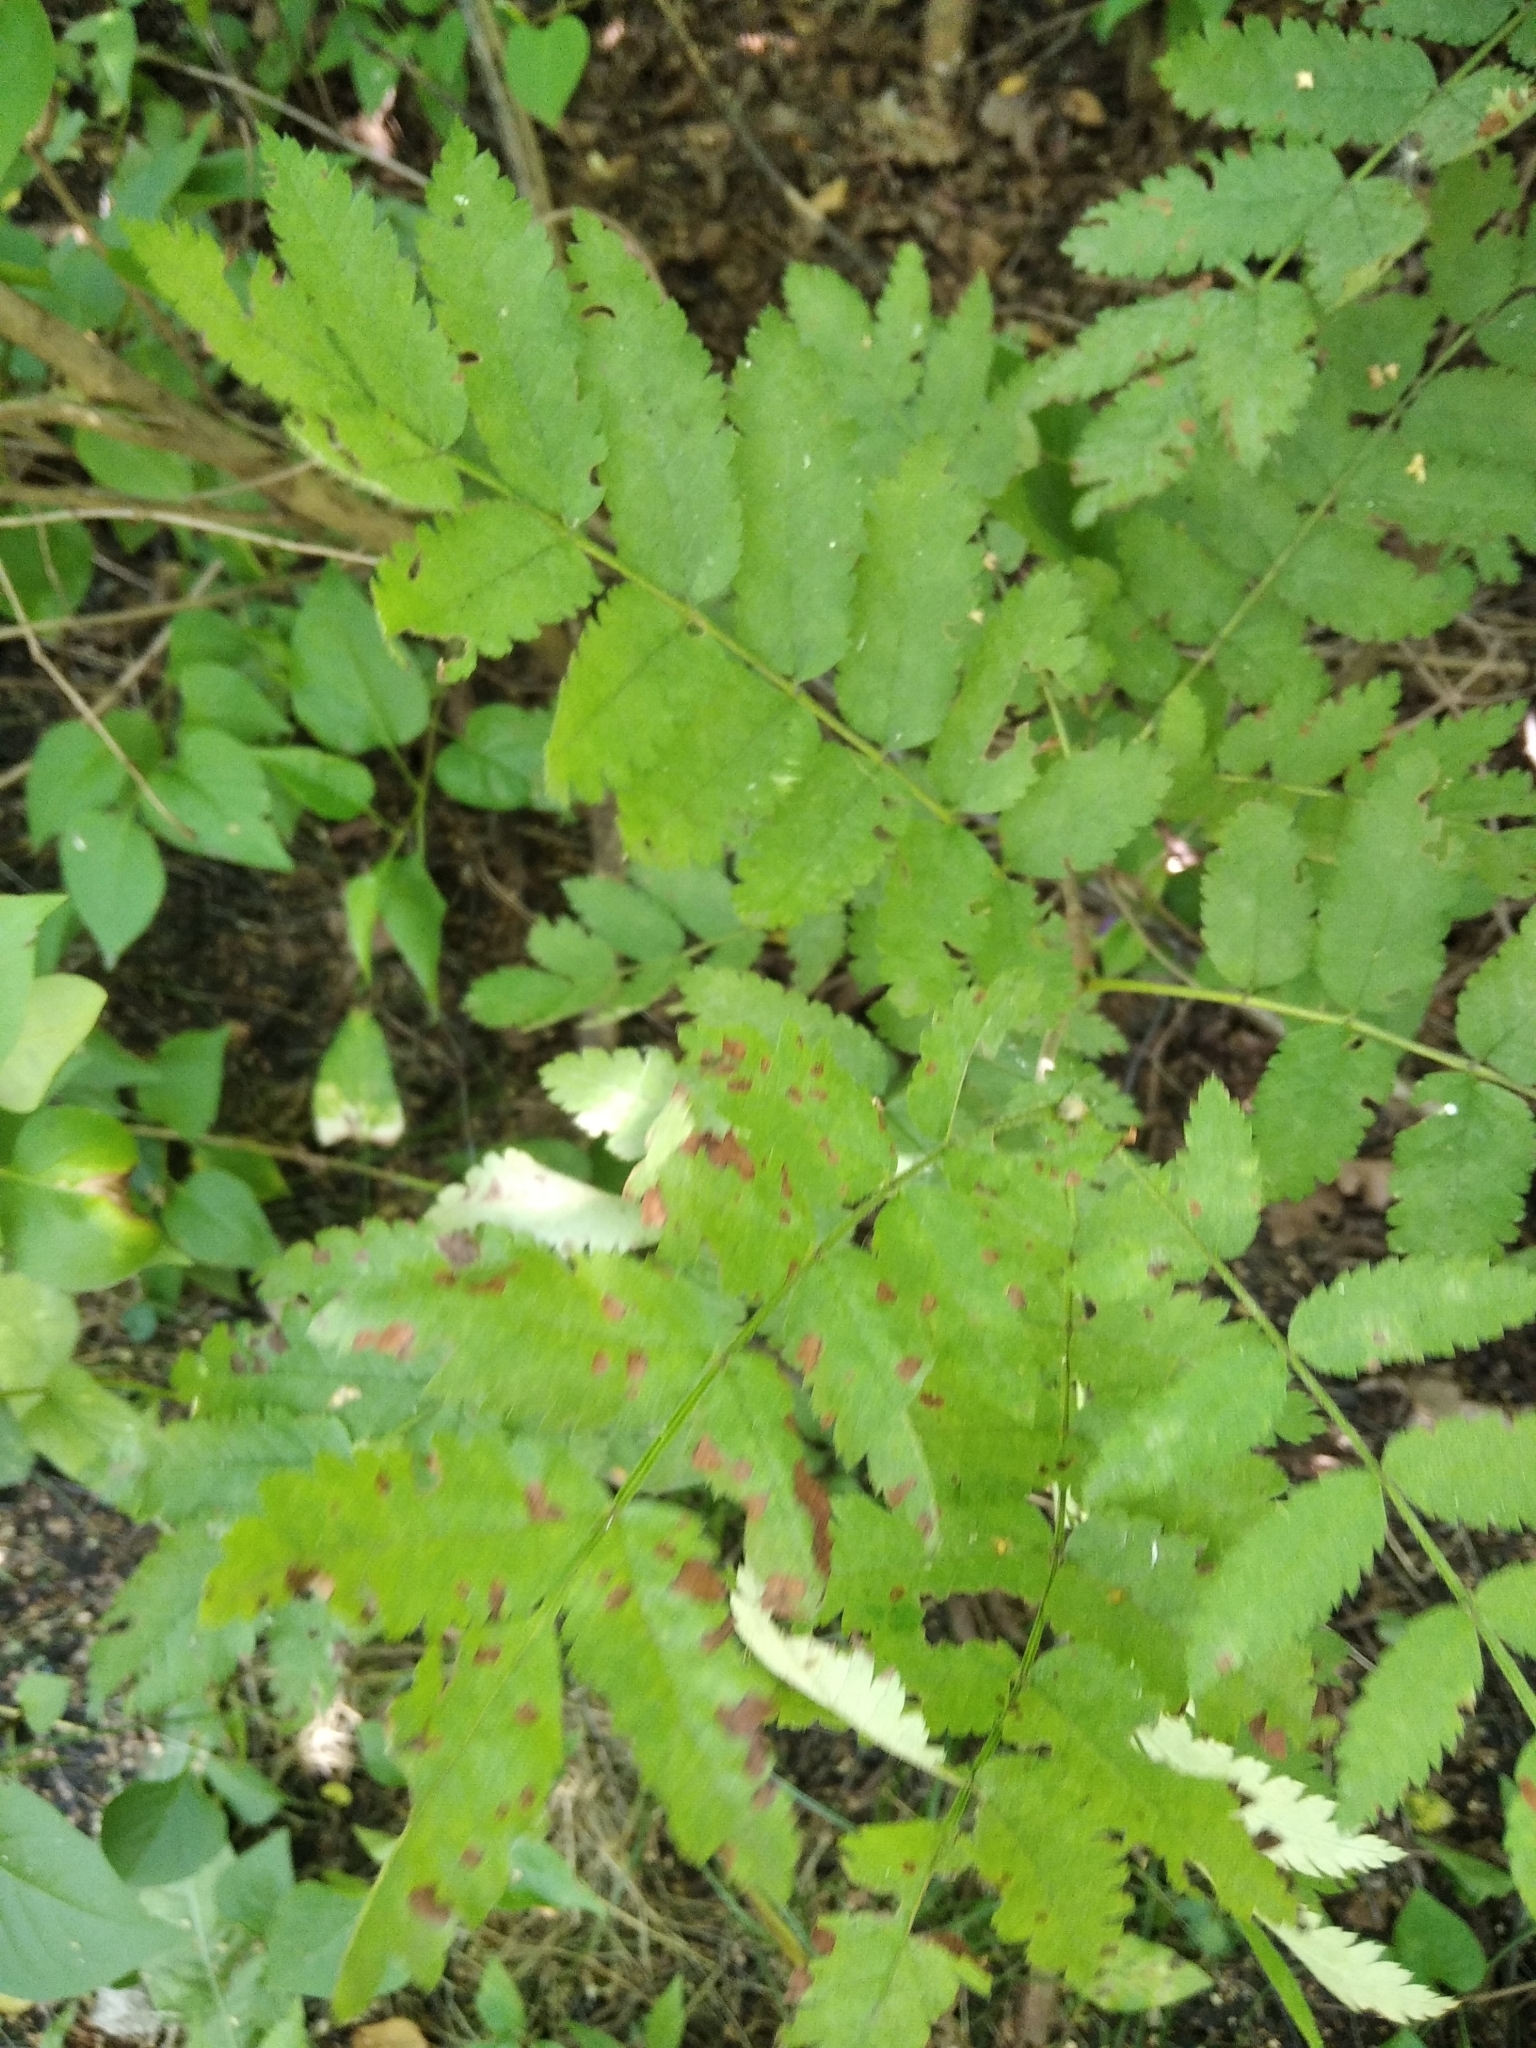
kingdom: Plantae
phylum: Tracheophyta
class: Magnoliopsida
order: Rosales
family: Rosaceae
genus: Sorbus
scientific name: Sorbus aucuparia
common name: Rowan
